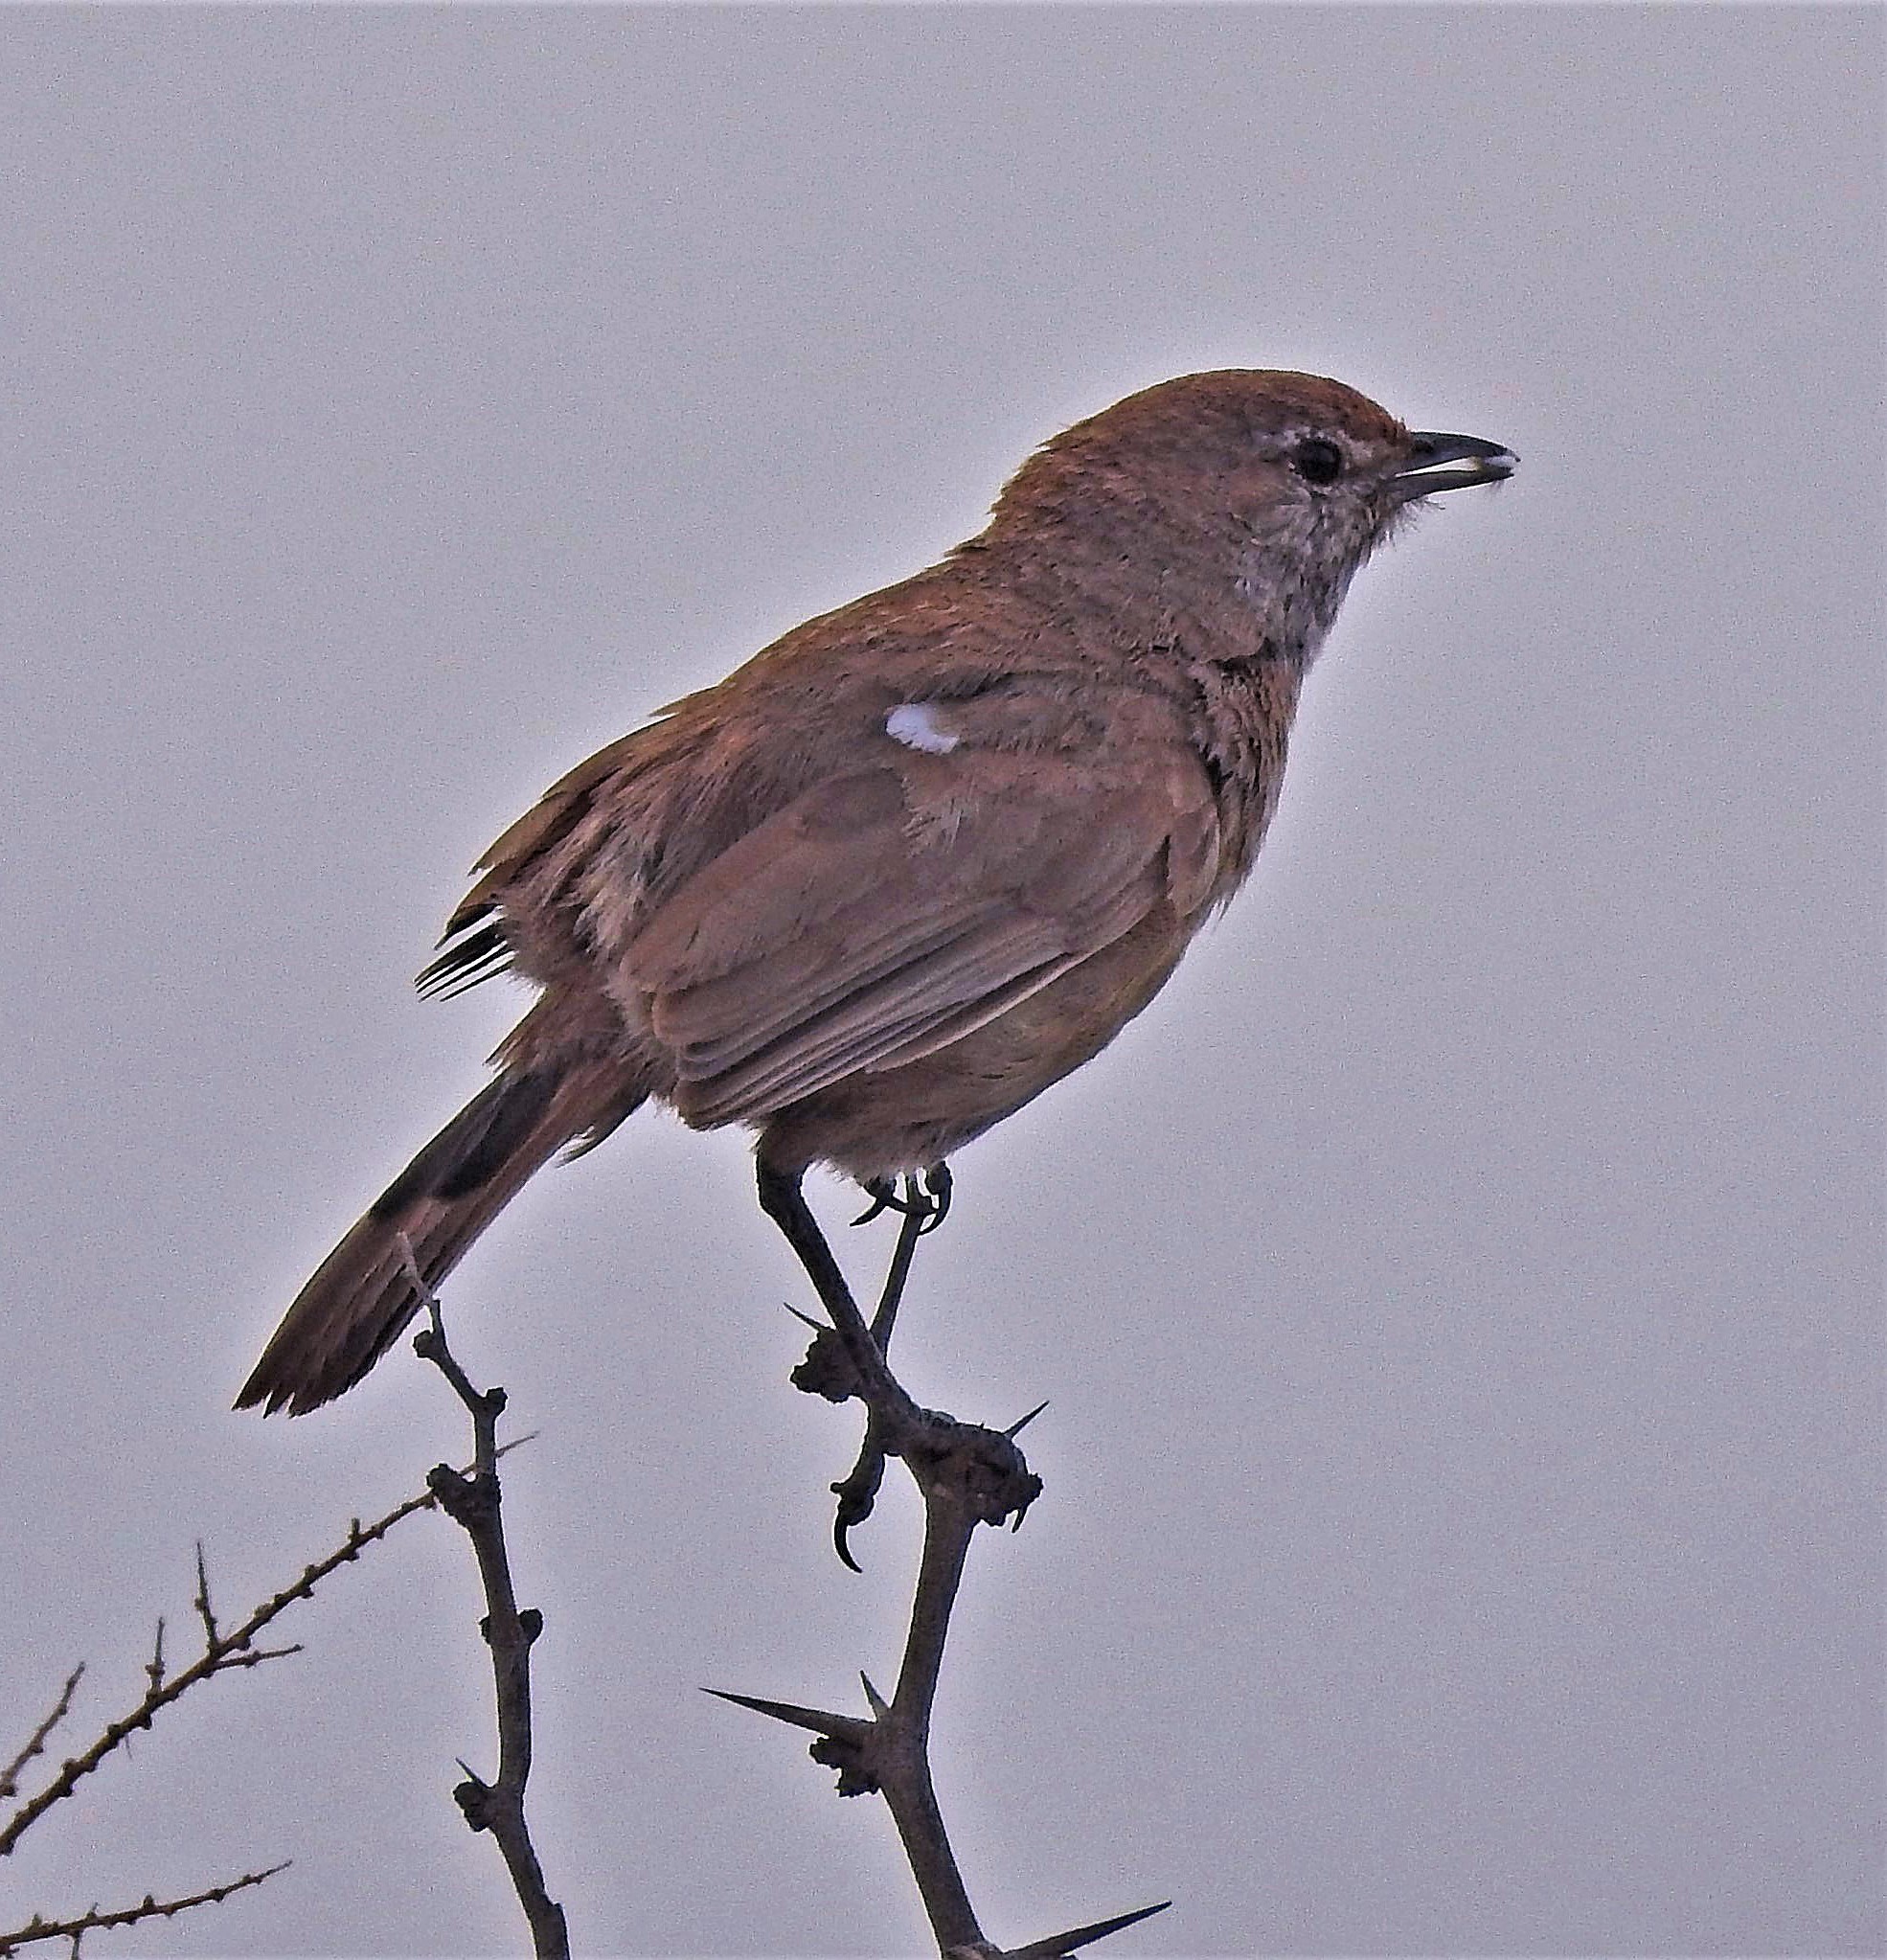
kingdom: Animalia
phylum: Chordata
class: Aves
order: Passeriformes
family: Rhinocryptidae
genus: Teledromas
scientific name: Teledromas fuscus
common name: Sandy gallito
